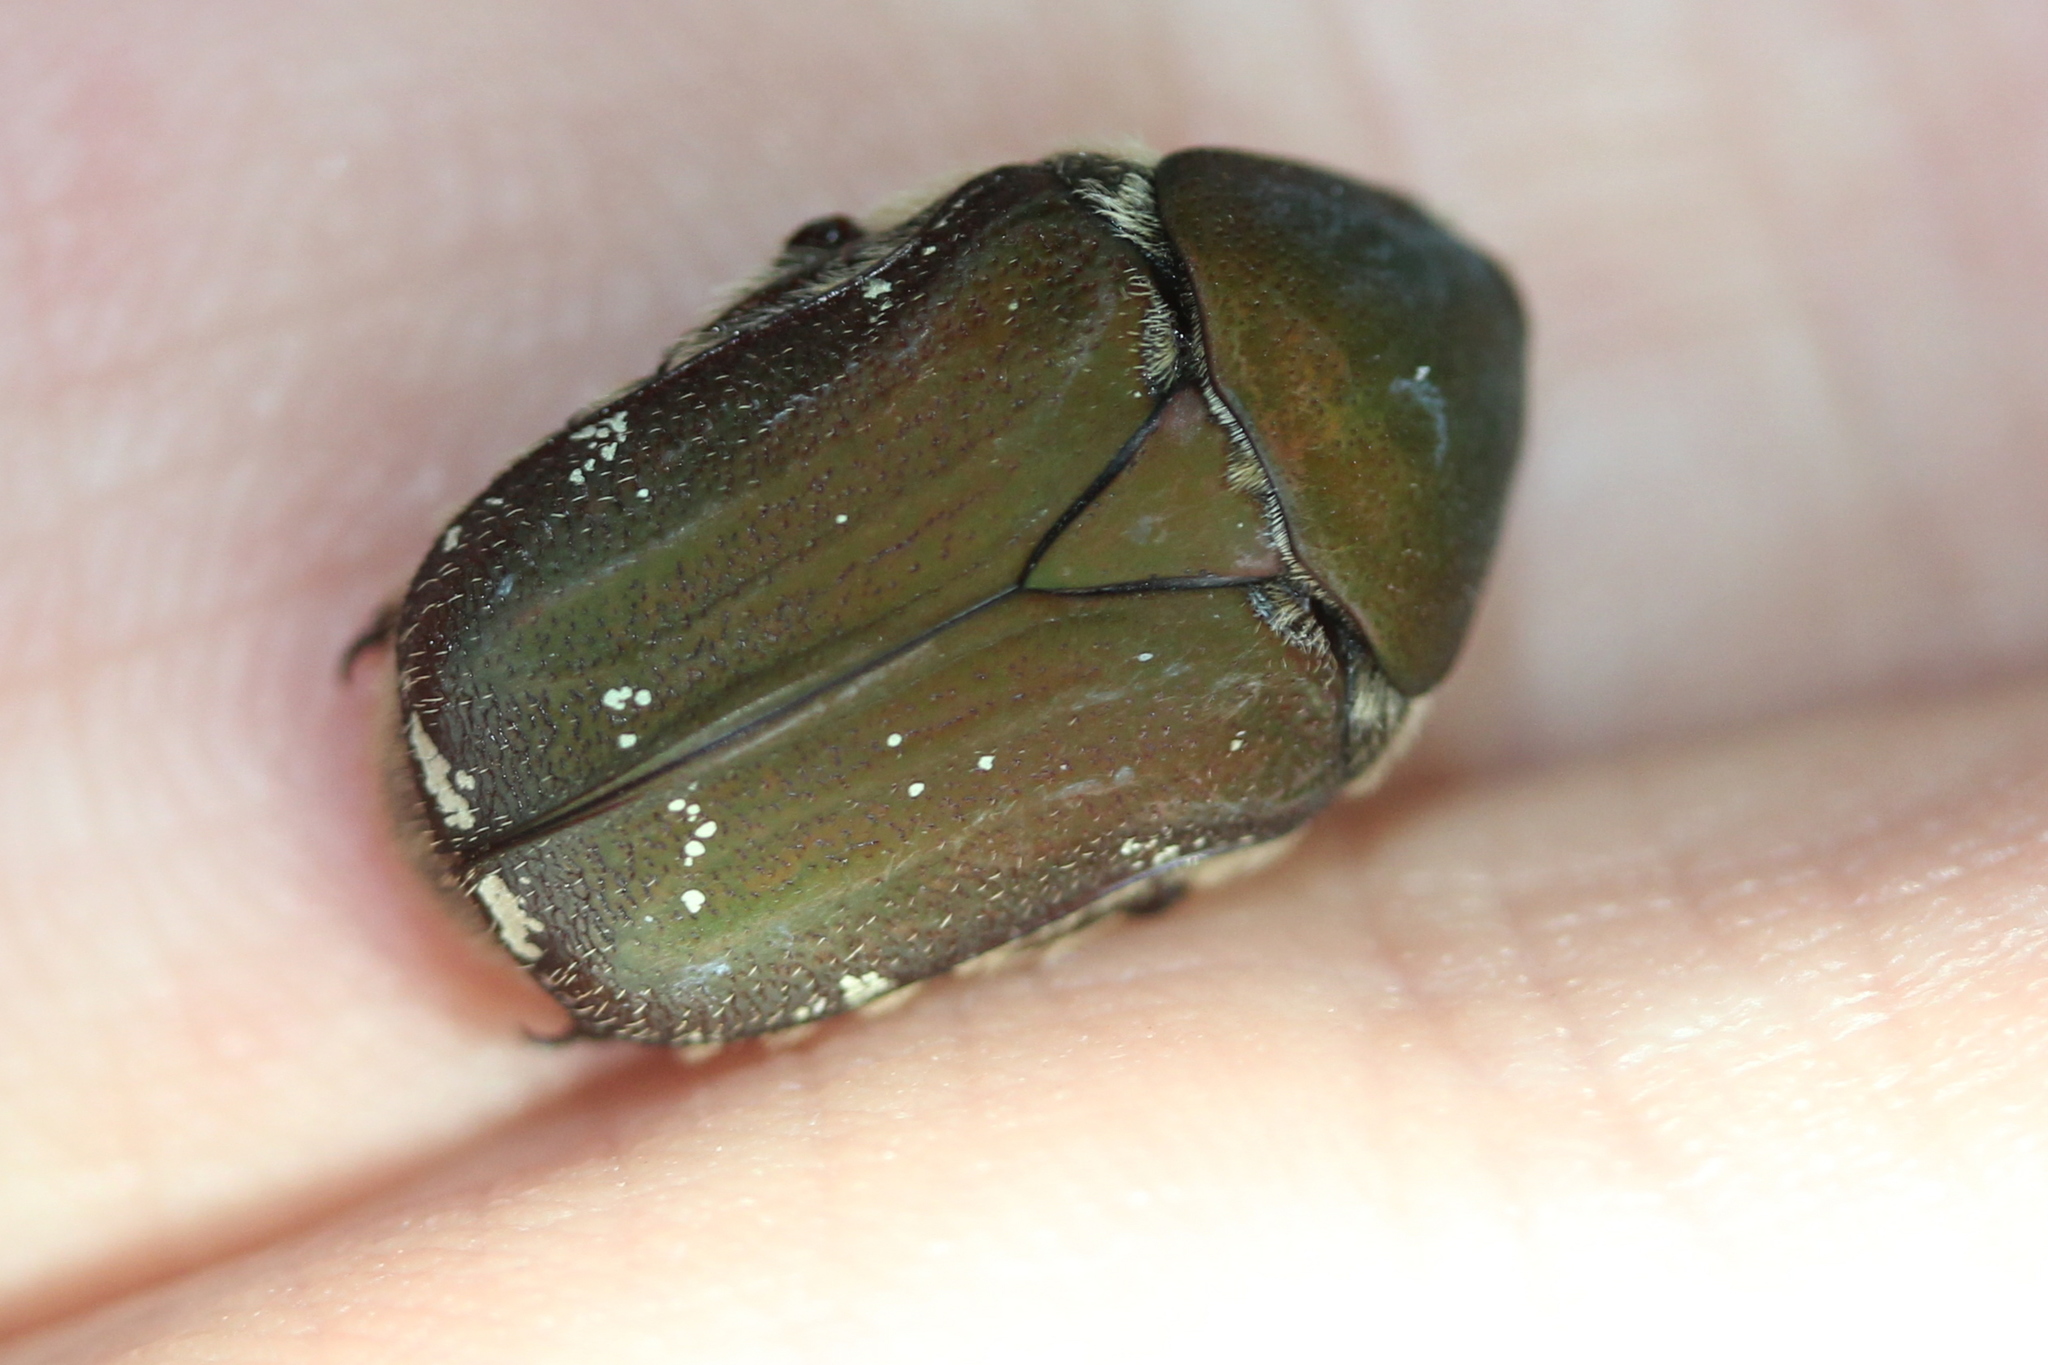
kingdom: Animalia
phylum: Arthropoda
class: Insecta
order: Coleoptera
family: Scarabaeidae
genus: Euphoria
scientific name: Euphoria herbacea
